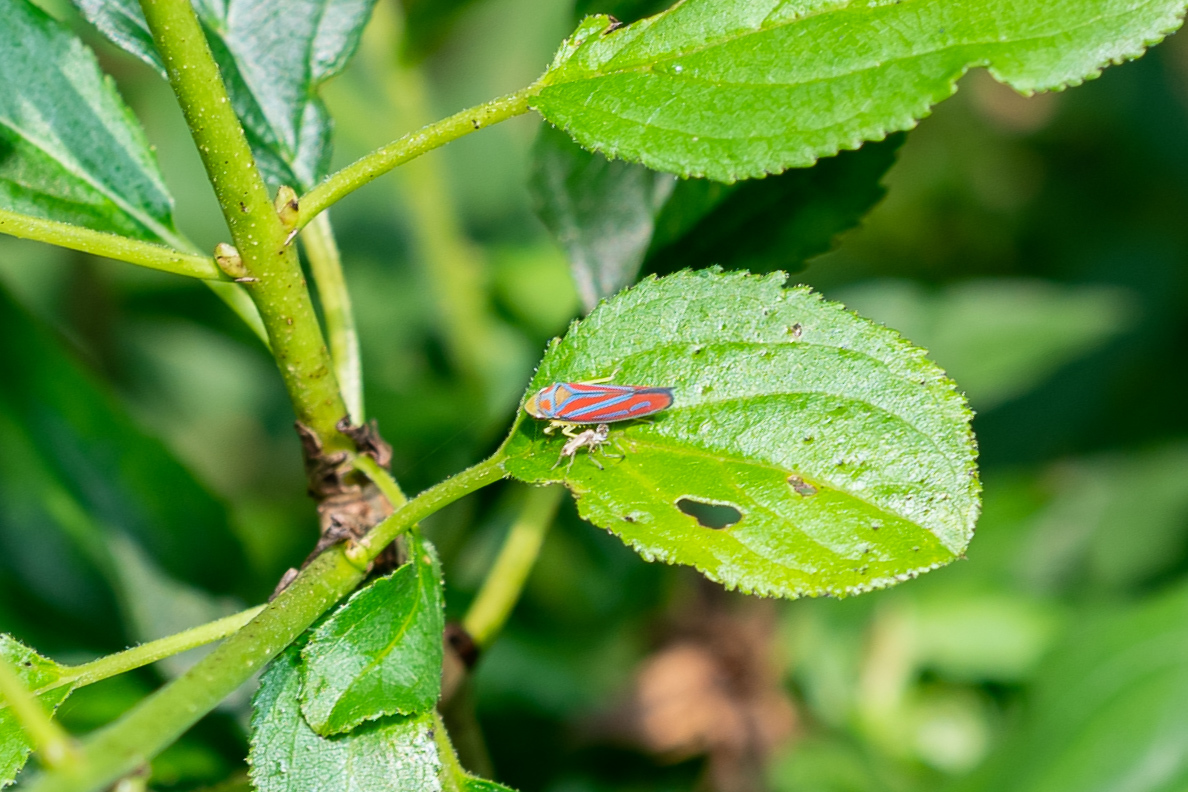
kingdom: Animalia
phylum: Arthropoda
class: Insecta
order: Hemiptera
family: Cicadellidae
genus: Graphocephala
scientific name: Graphocephala coccinea
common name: Candy-striped leafhopper
